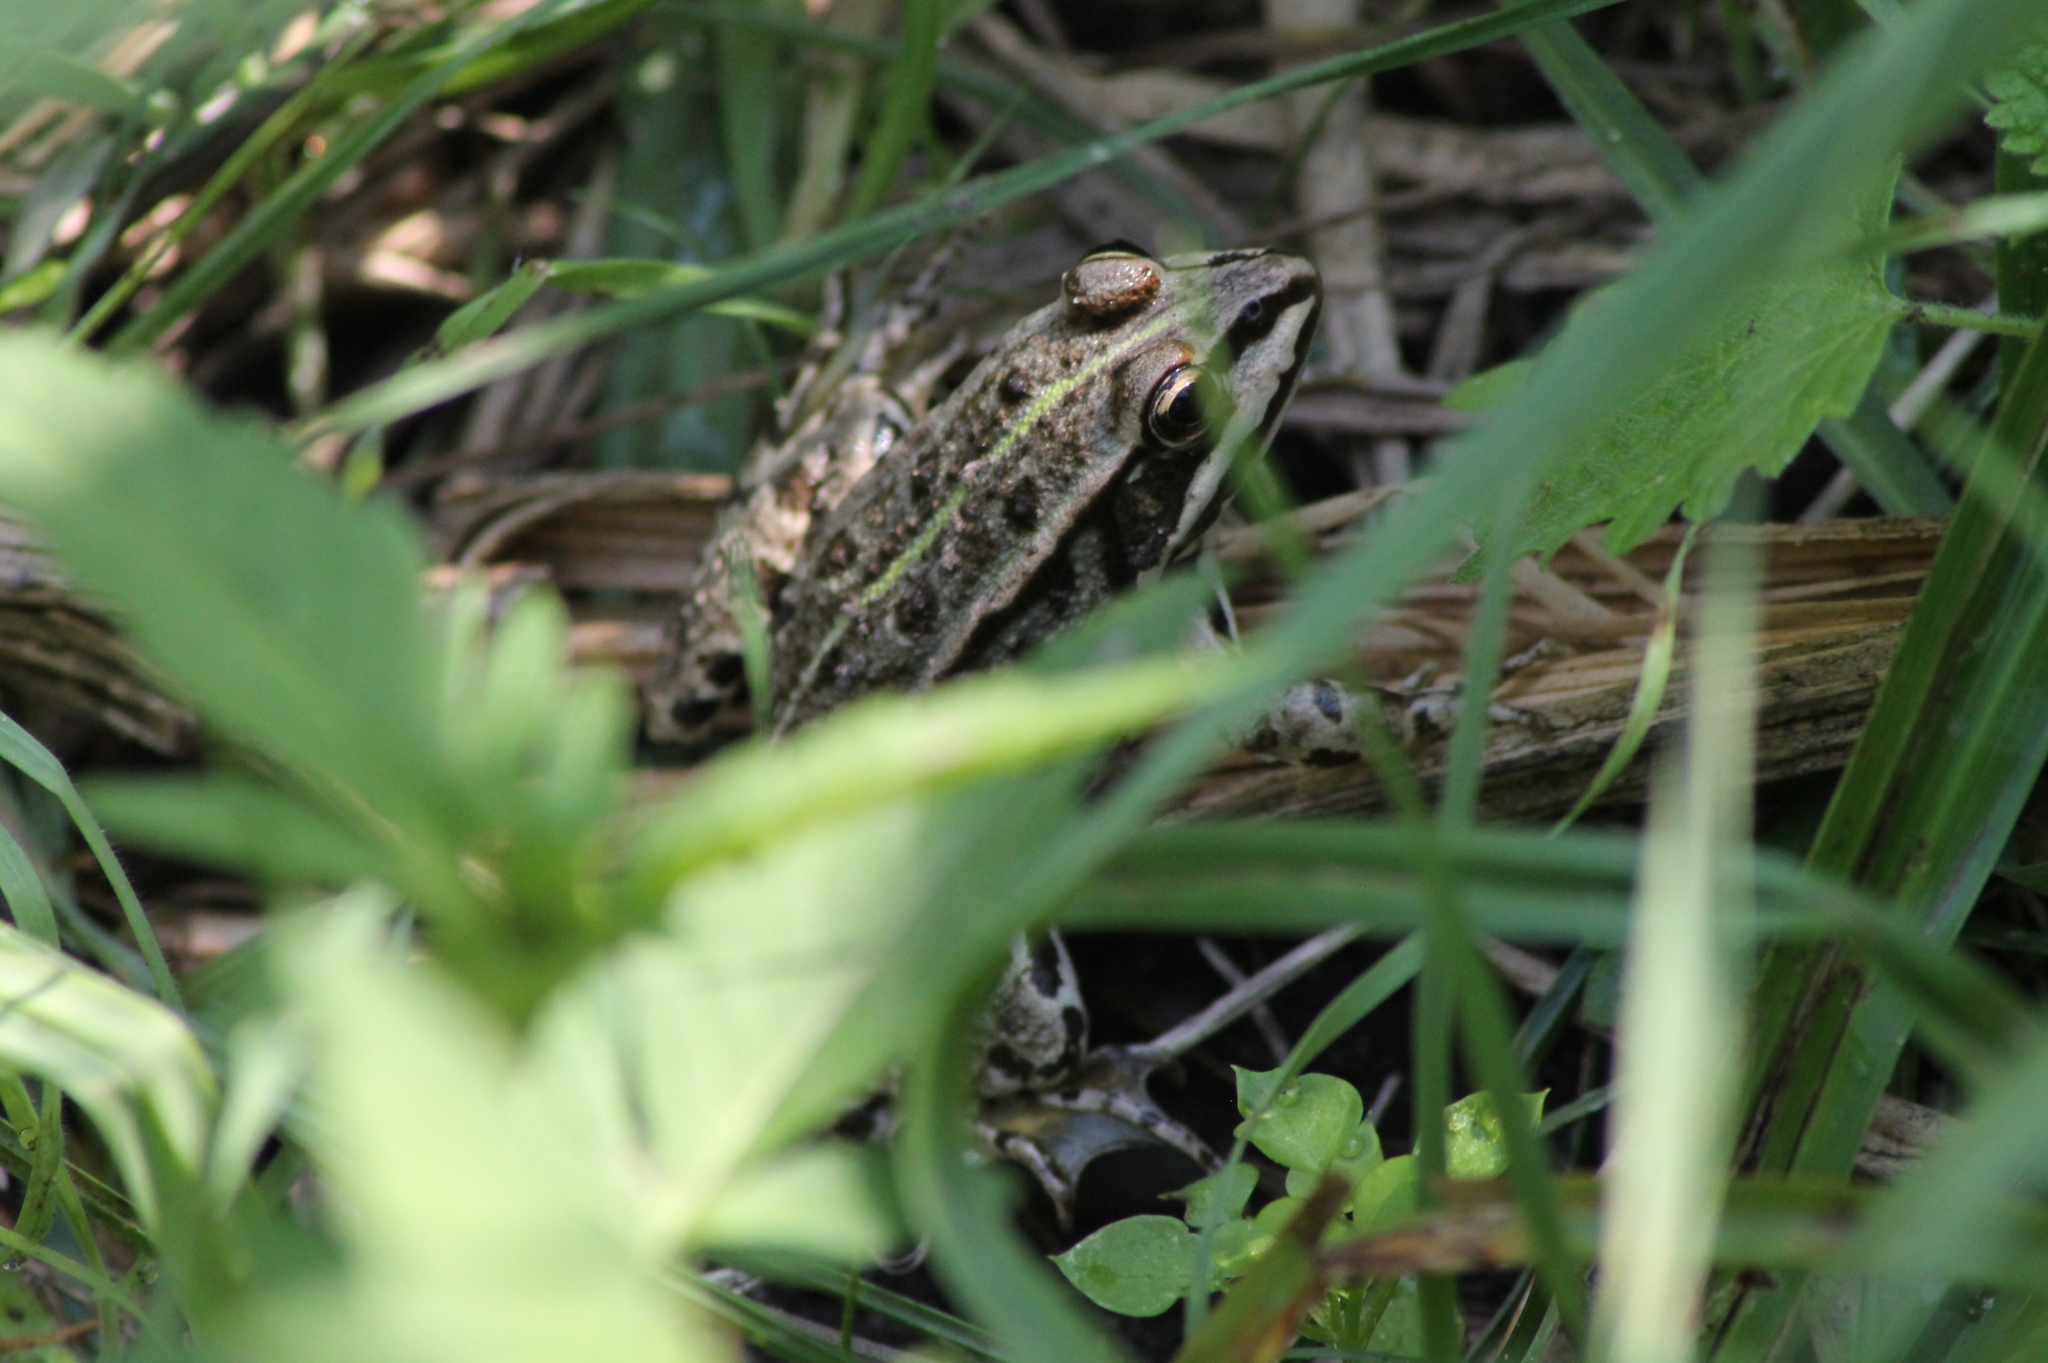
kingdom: Animalia
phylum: Chordata
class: Amphibia
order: Anura
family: Ranidae
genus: Pelophylax
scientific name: Pelophylax
